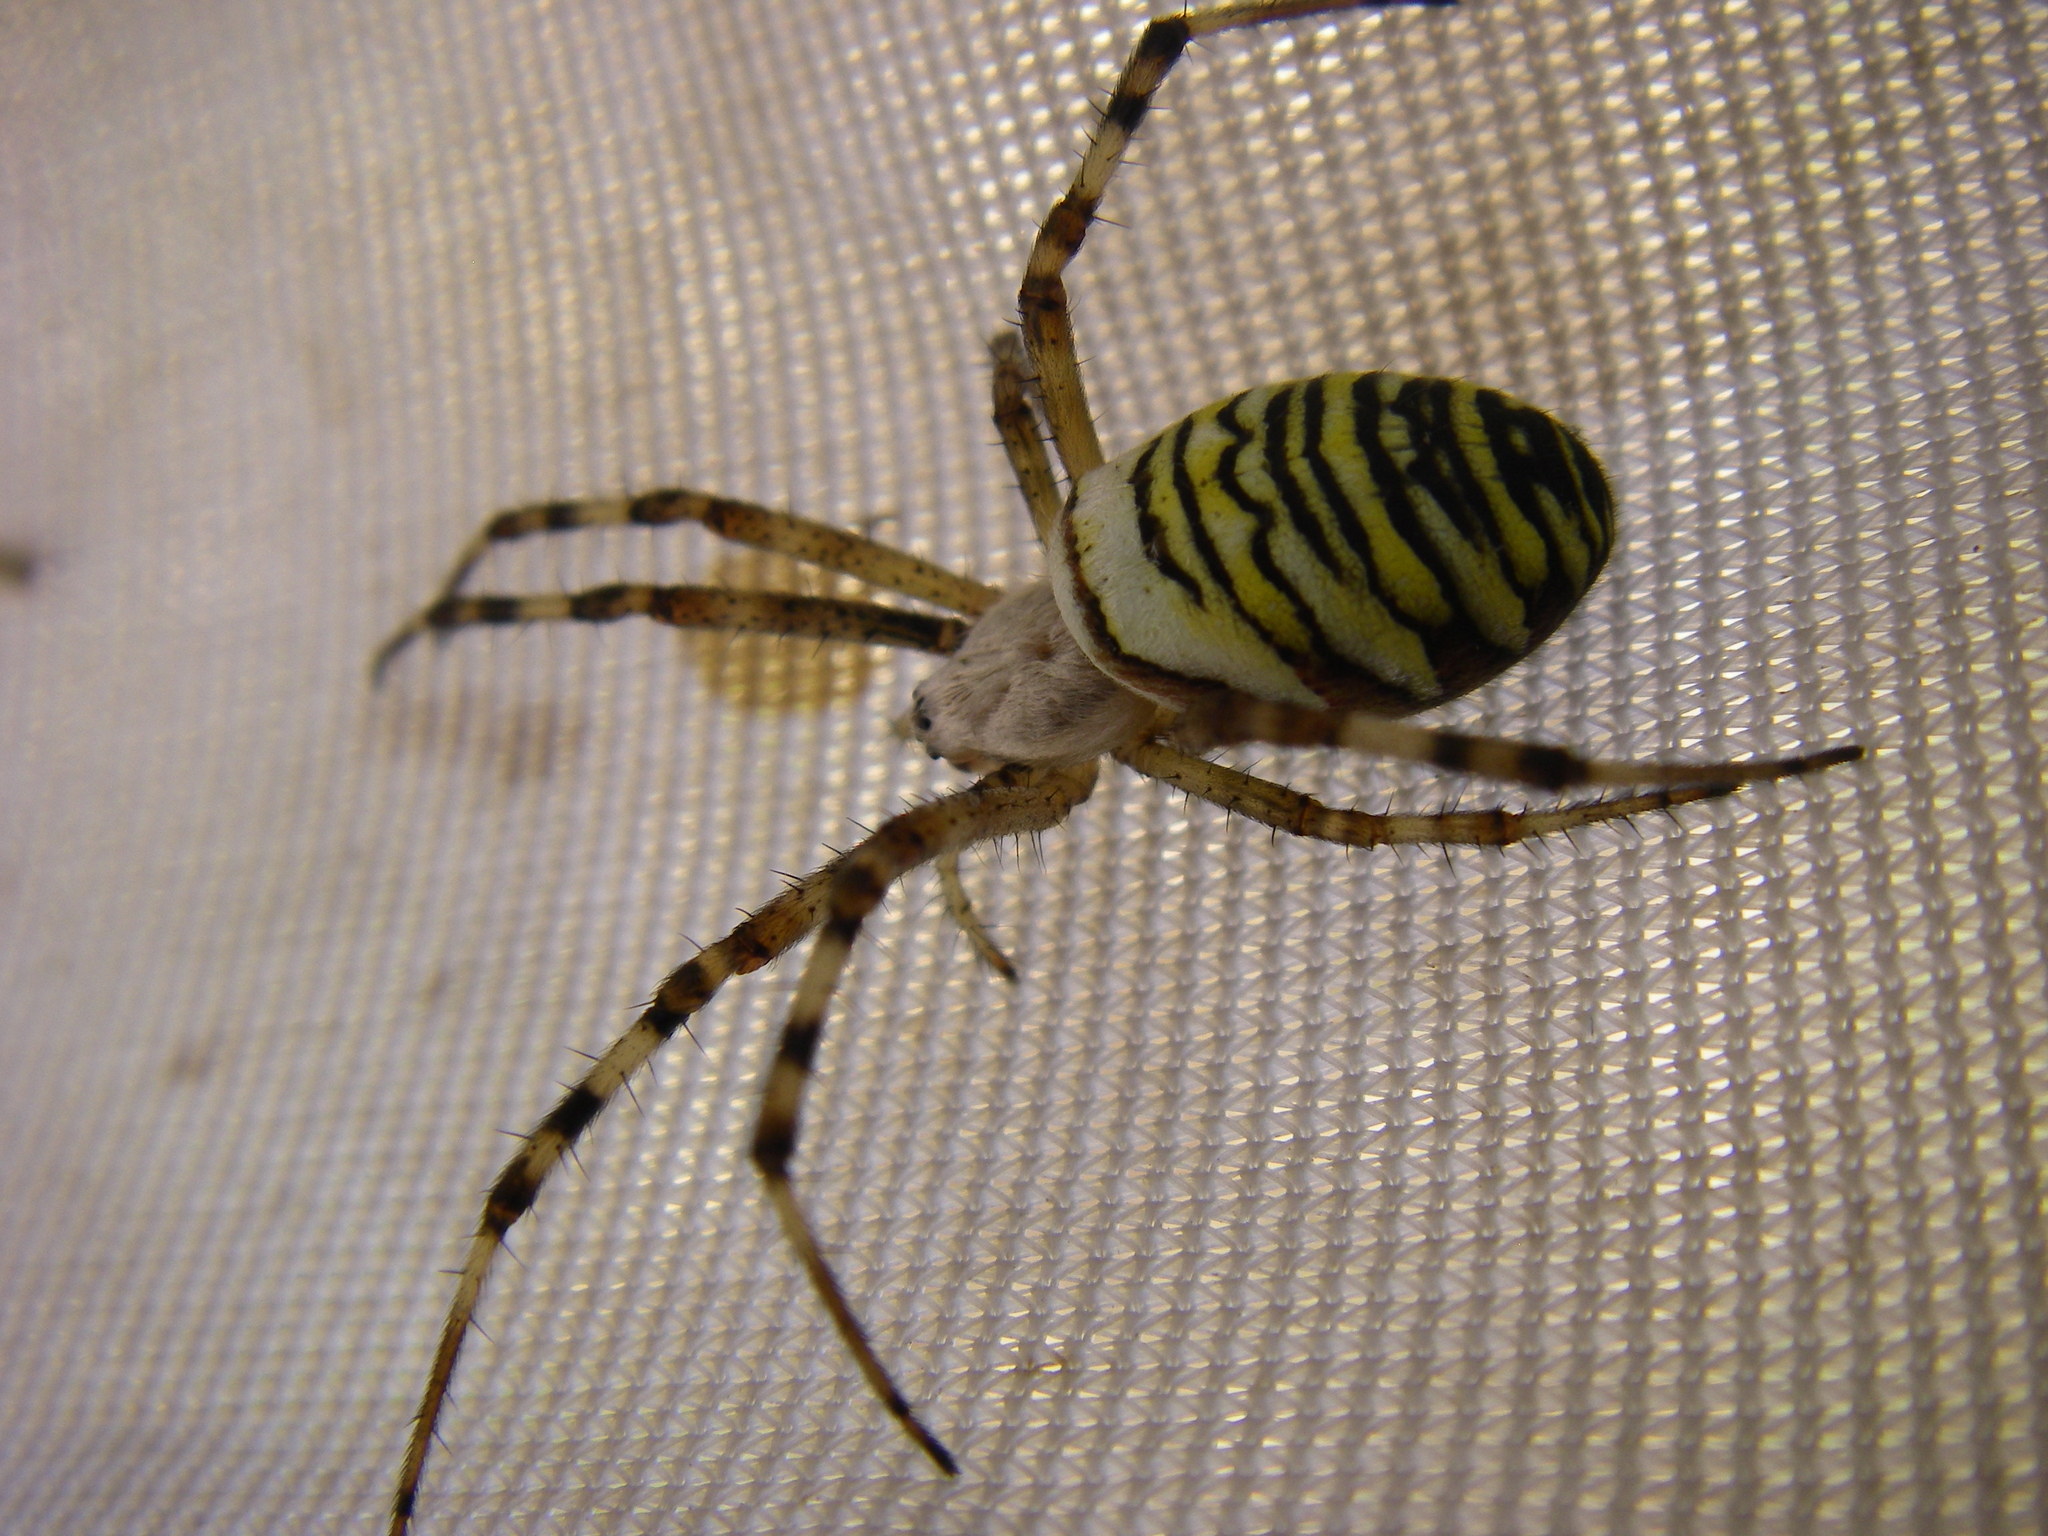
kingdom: Animalia
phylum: Arthropoda
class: Arachnida
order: Araneae
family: Araneidae
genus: Argiope
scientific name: Argiope bruennichi
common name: Wasp spider
